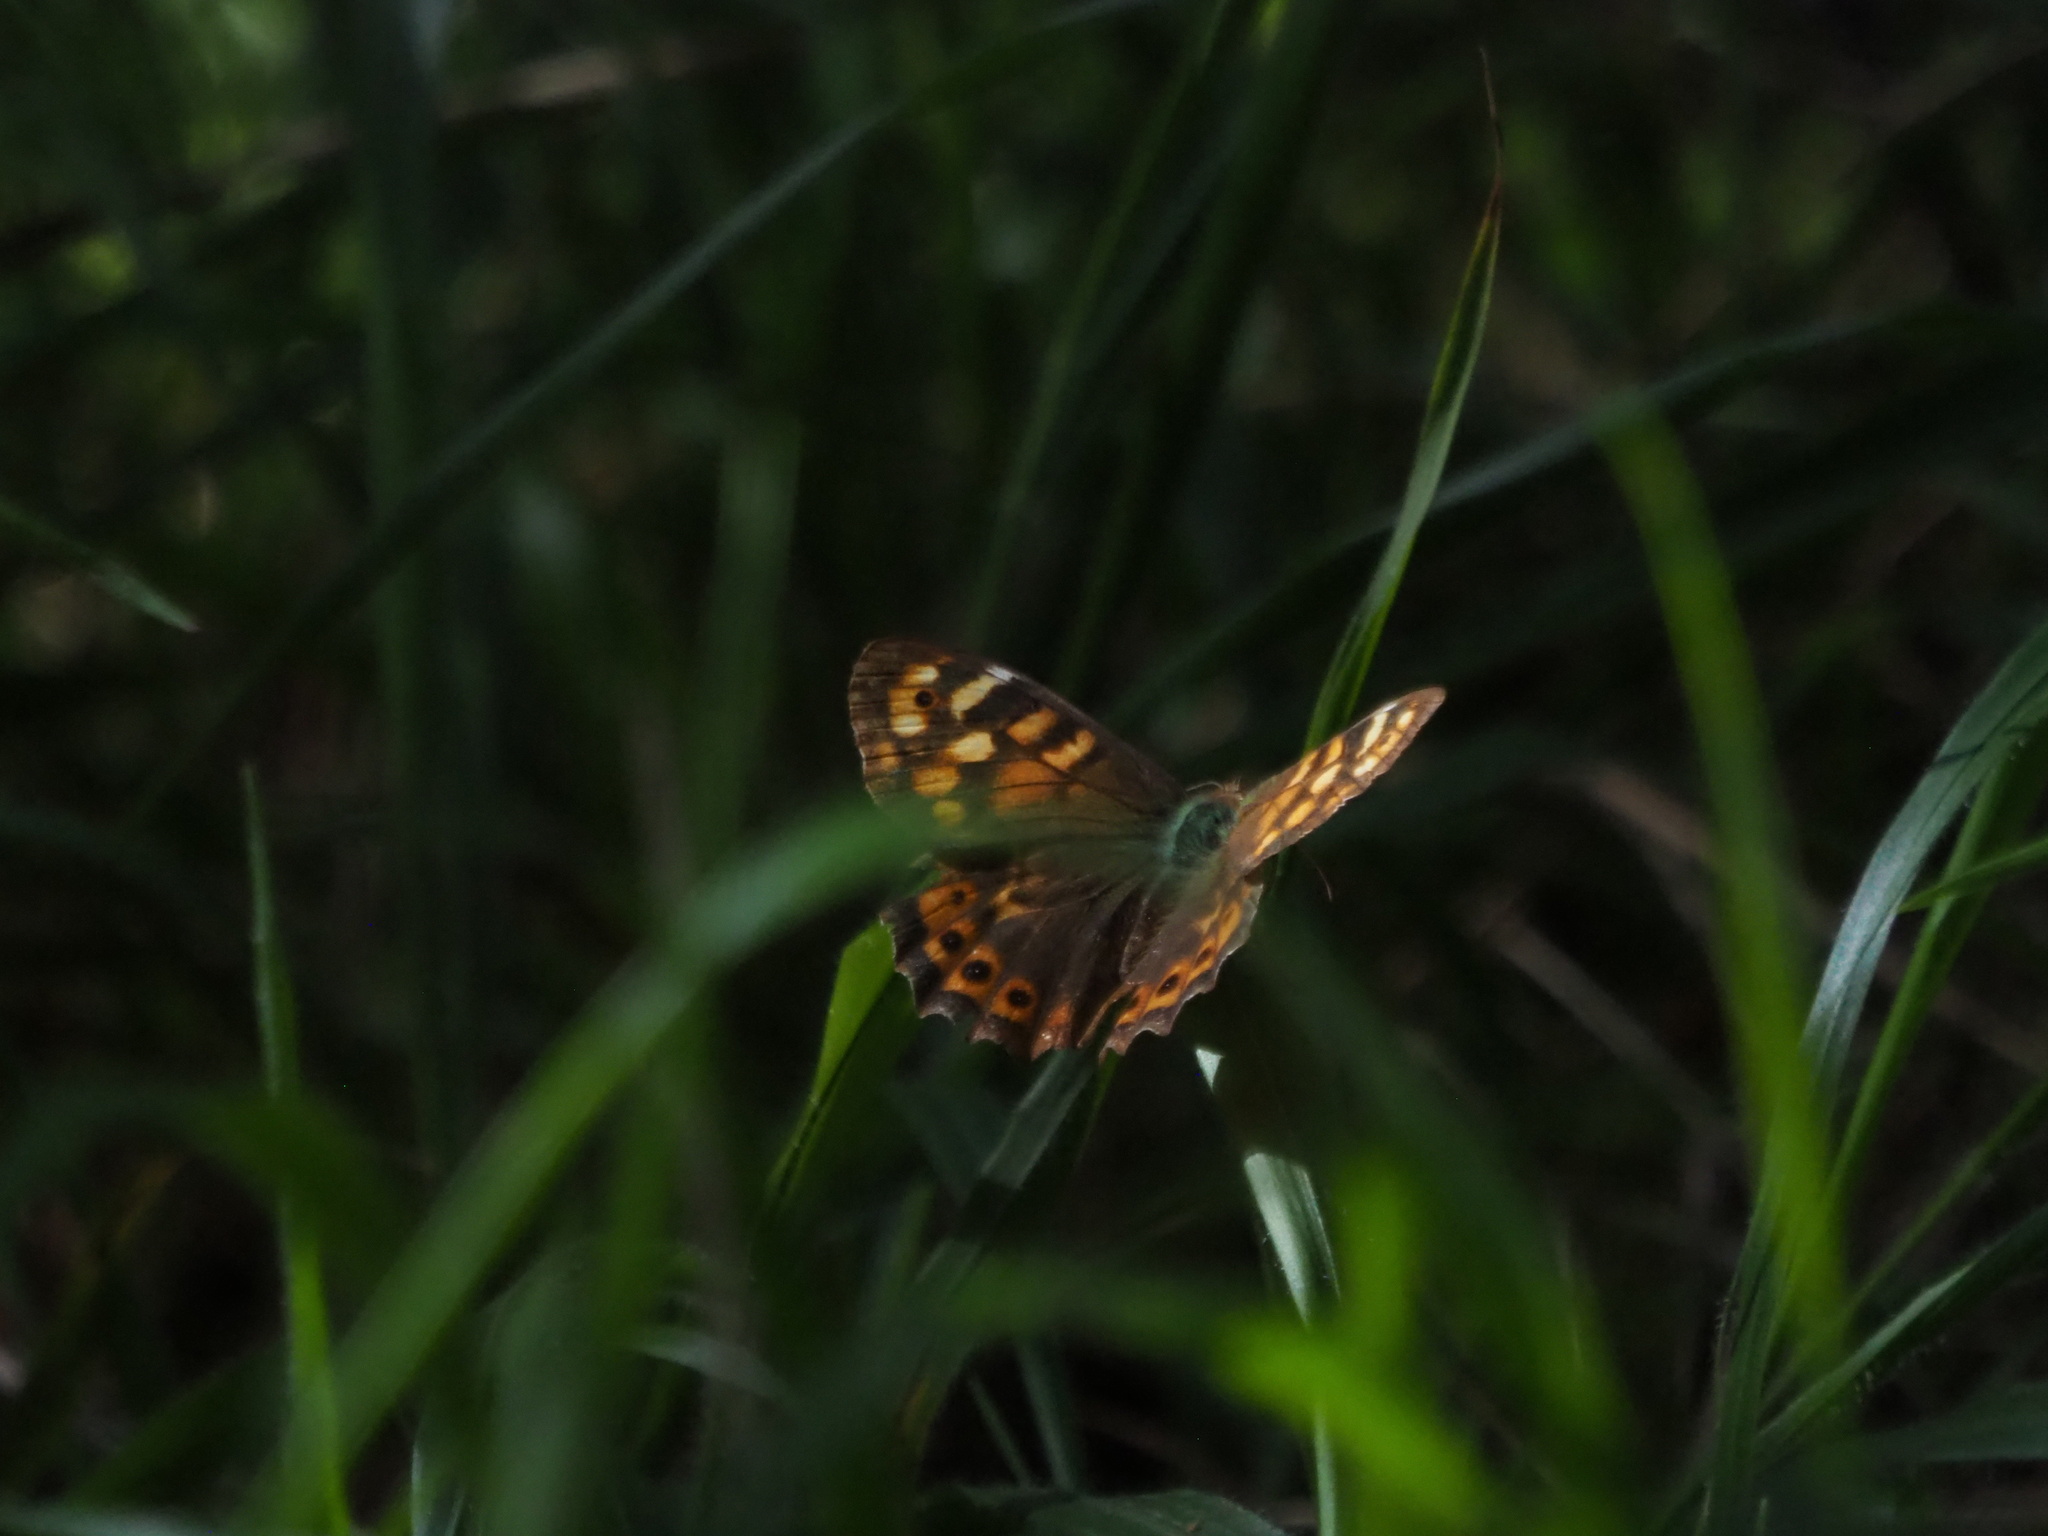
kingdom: Animalia
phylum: Arthropoda
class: Insecta
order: Lepidoptera
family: Nymphalidae
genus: Pararge
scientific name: Pararge aegeria
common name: Speckled wood
